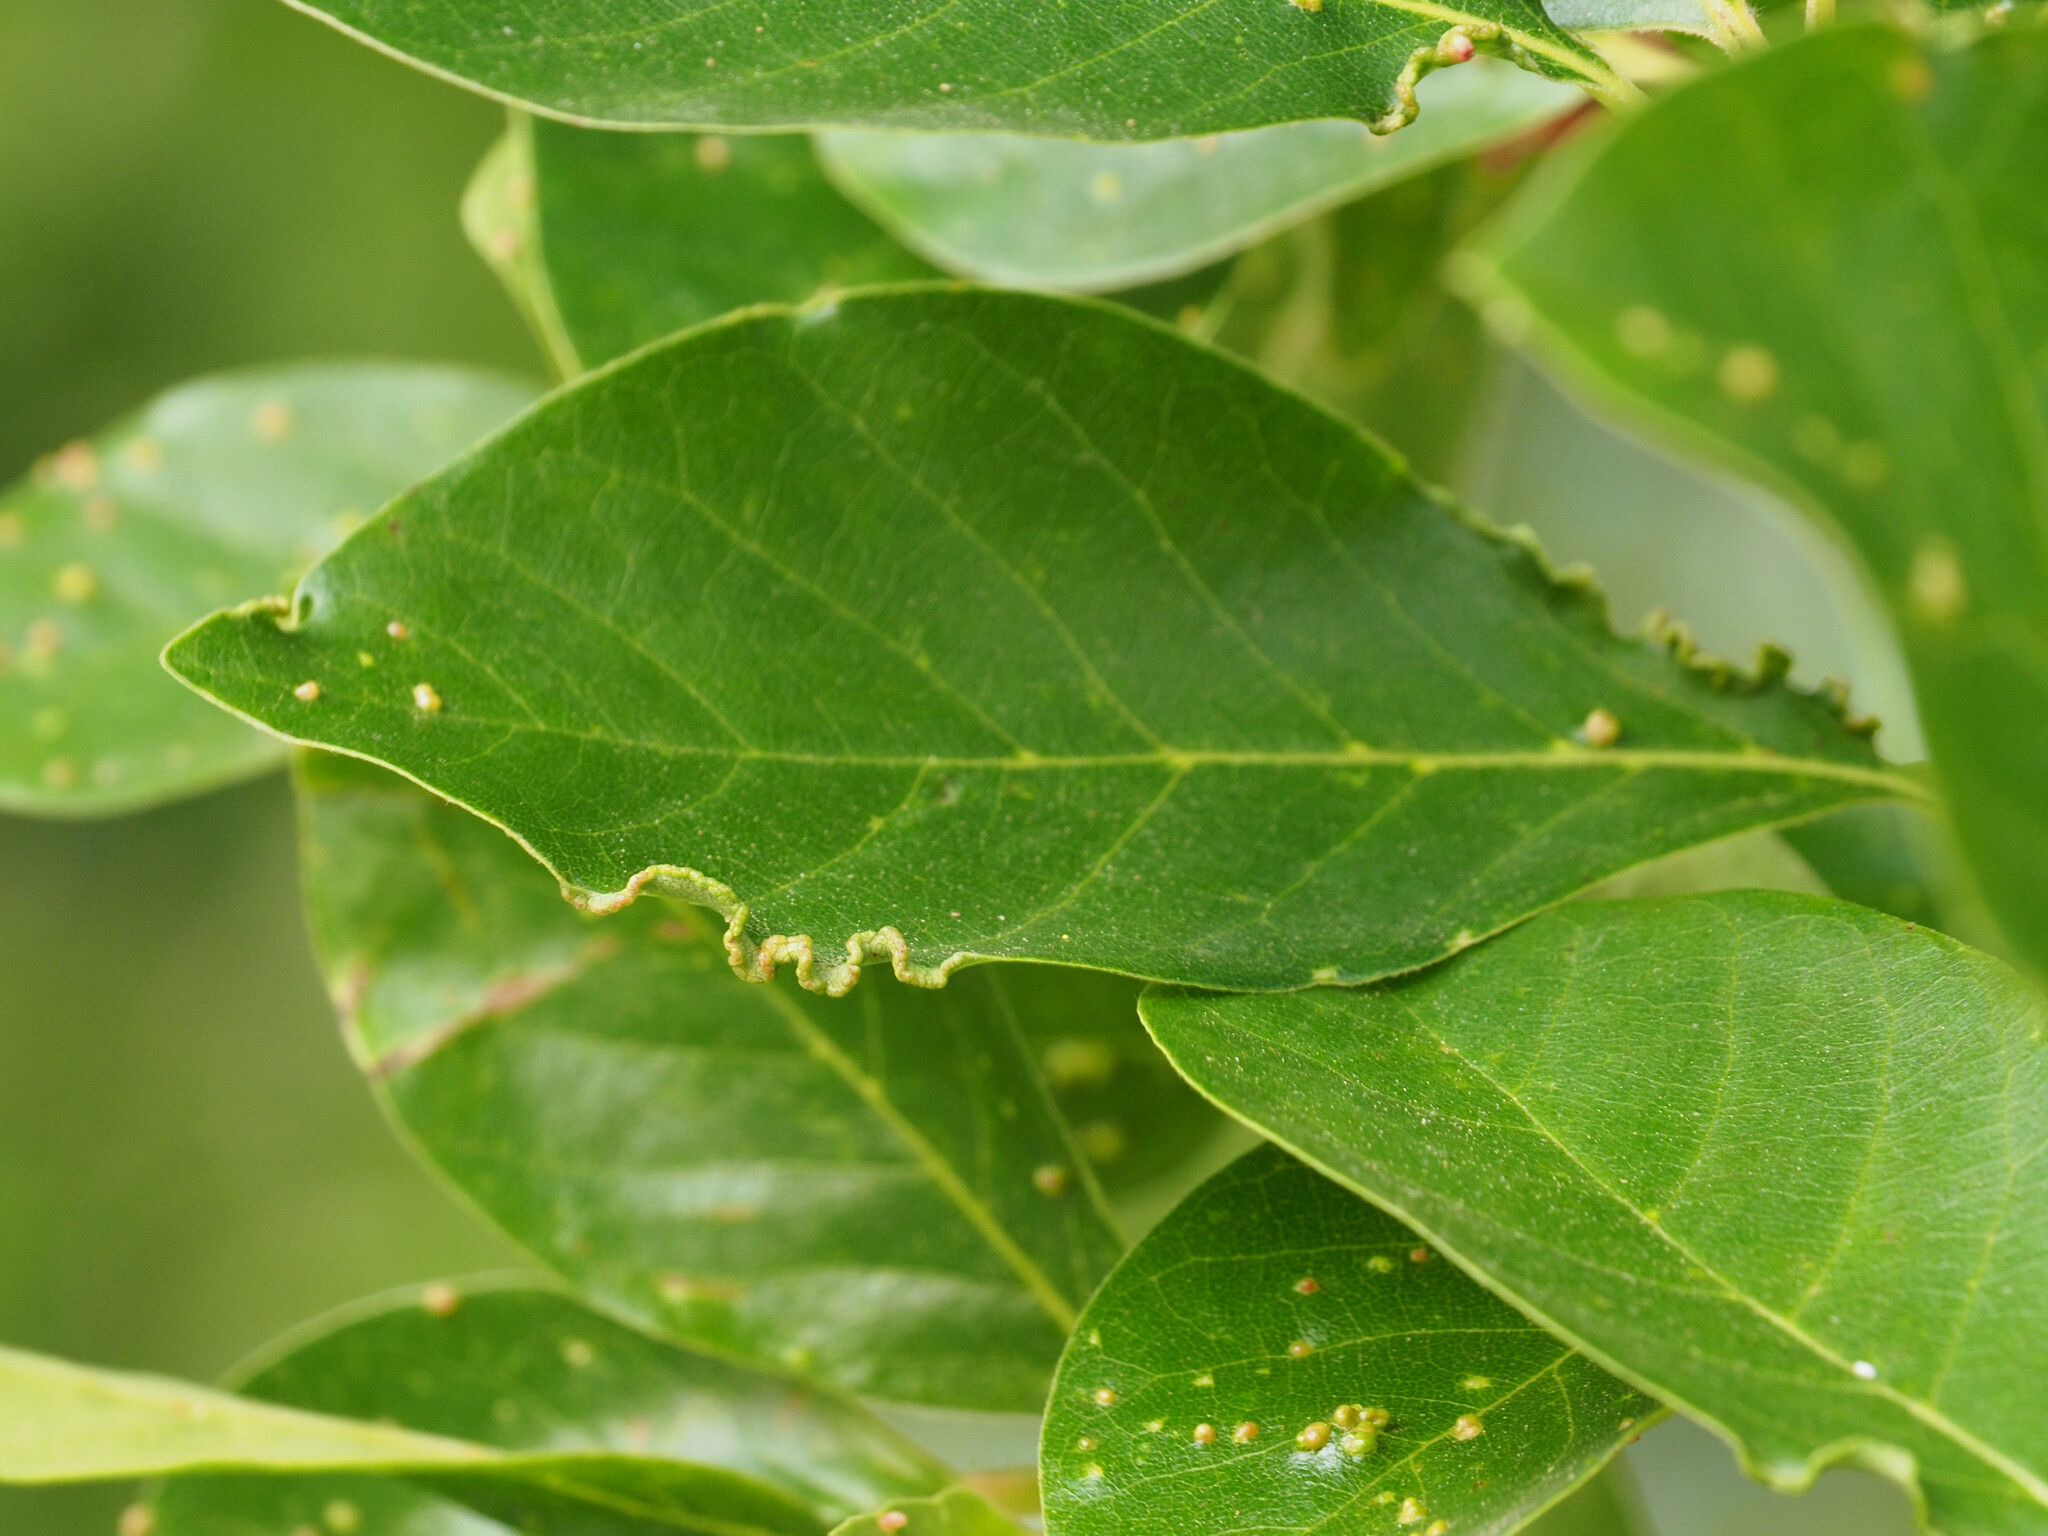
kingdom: Animalia
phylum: Arthropoda
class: Arachnida
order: Trombidiformes
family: Eriophyidae
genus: Aceria
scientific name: Aceria
